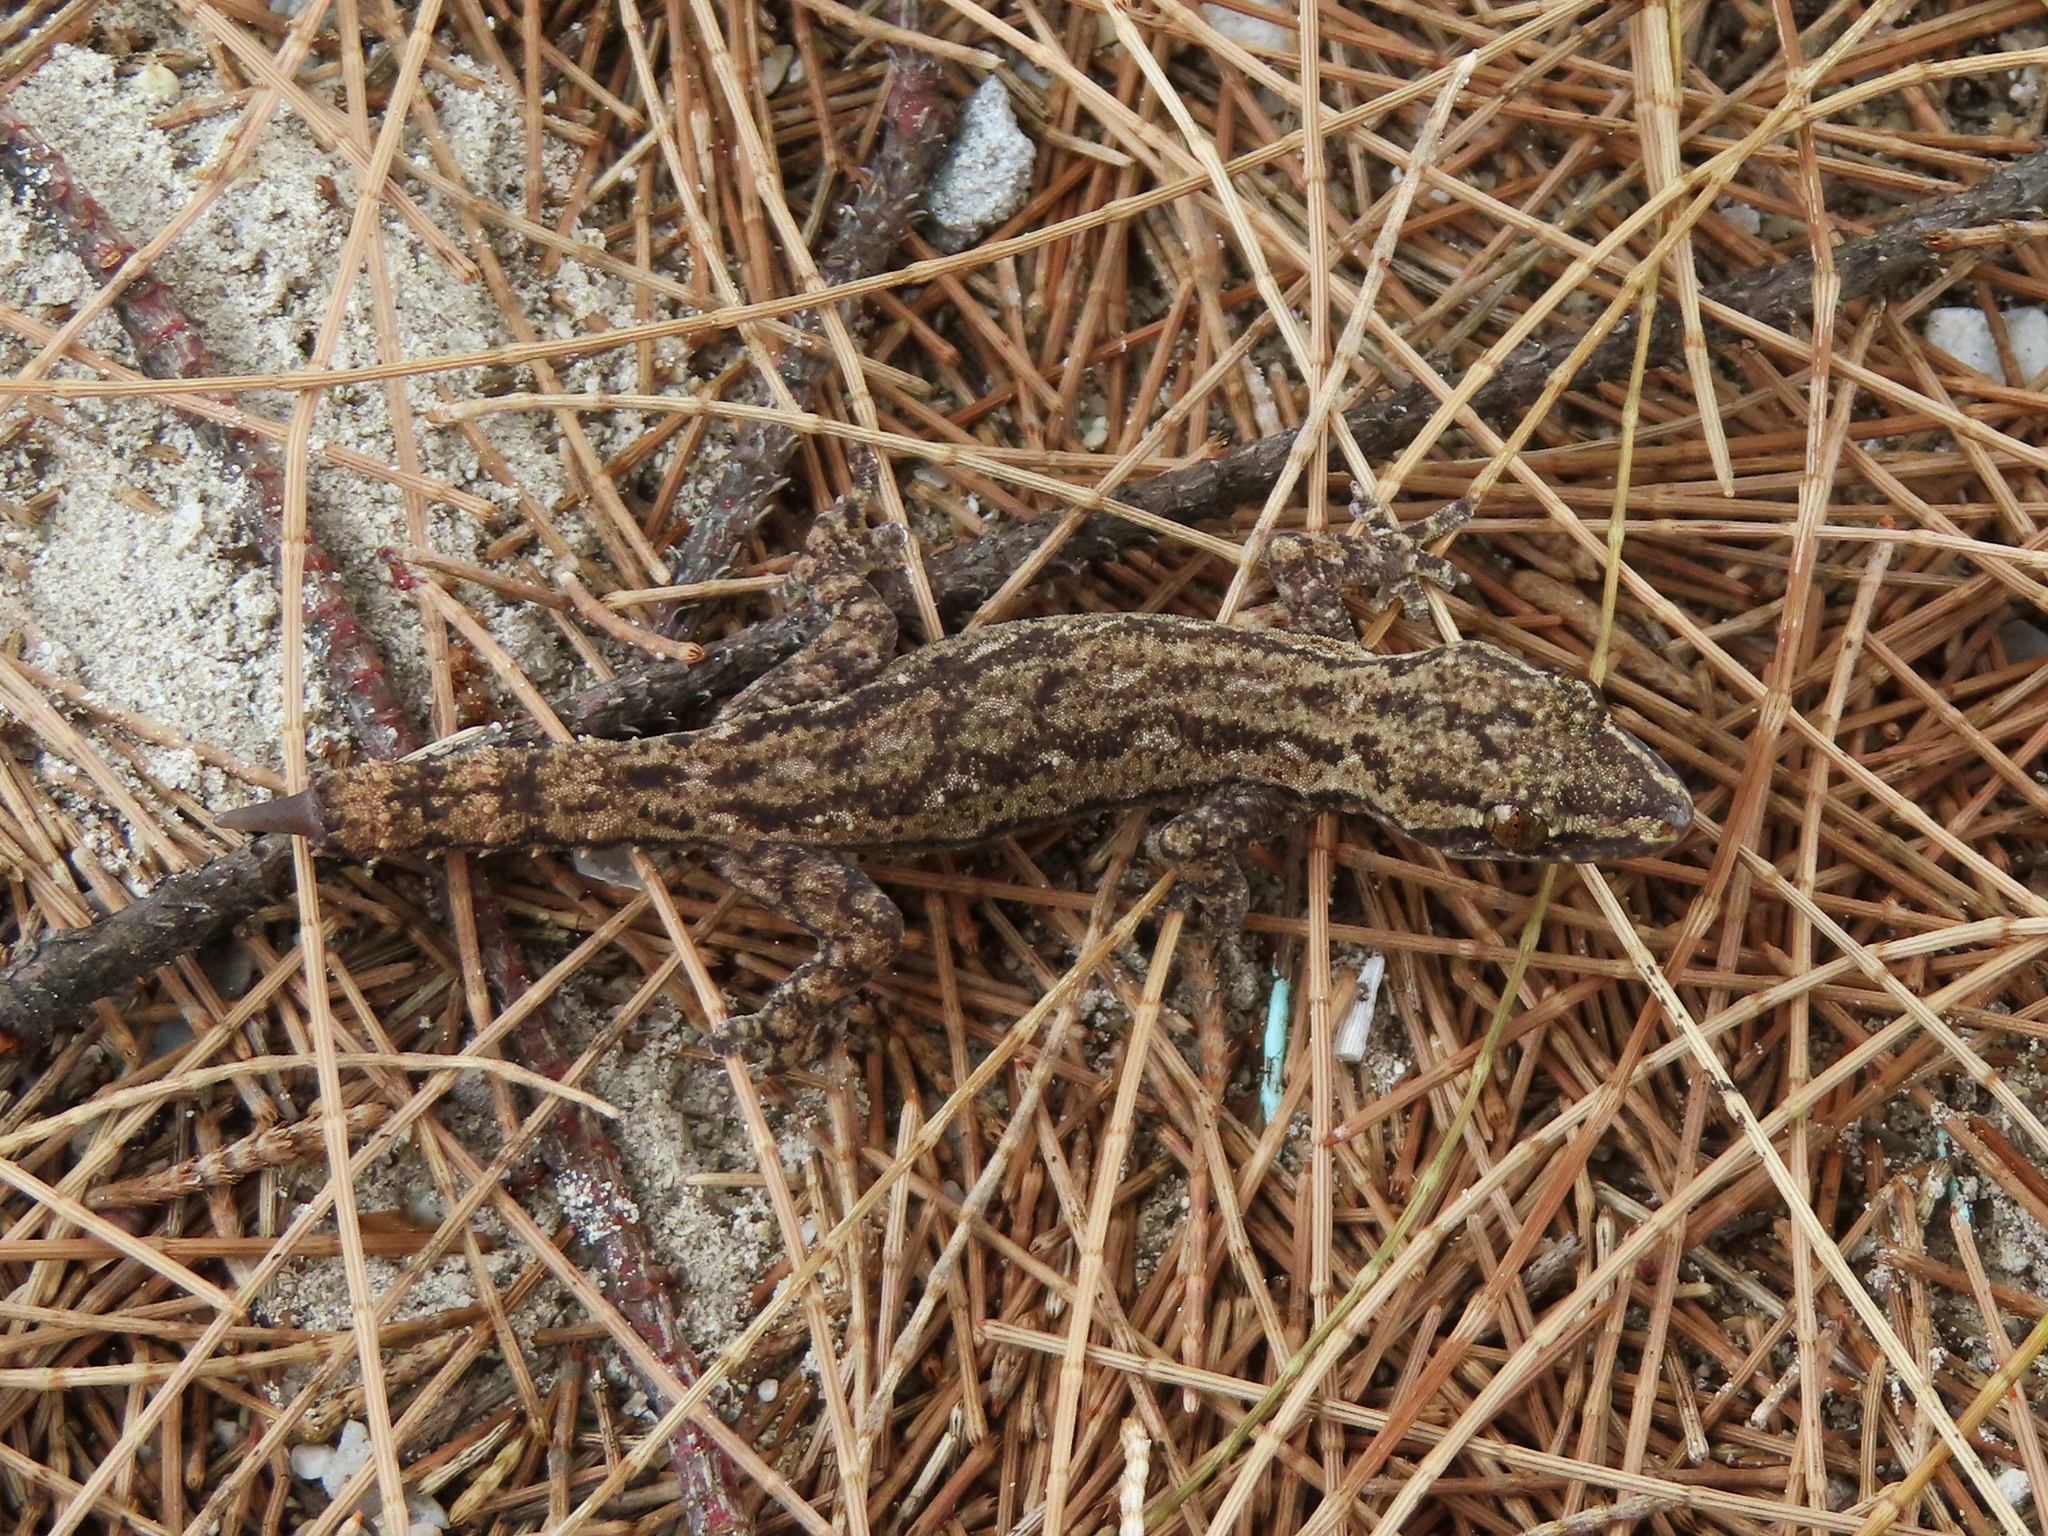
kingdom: Animalia
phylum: Chordata
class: Squamata
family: Gekkonidae
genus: Hemidactylus
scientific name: Hemidactylus frenatus
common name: Common house gecko
